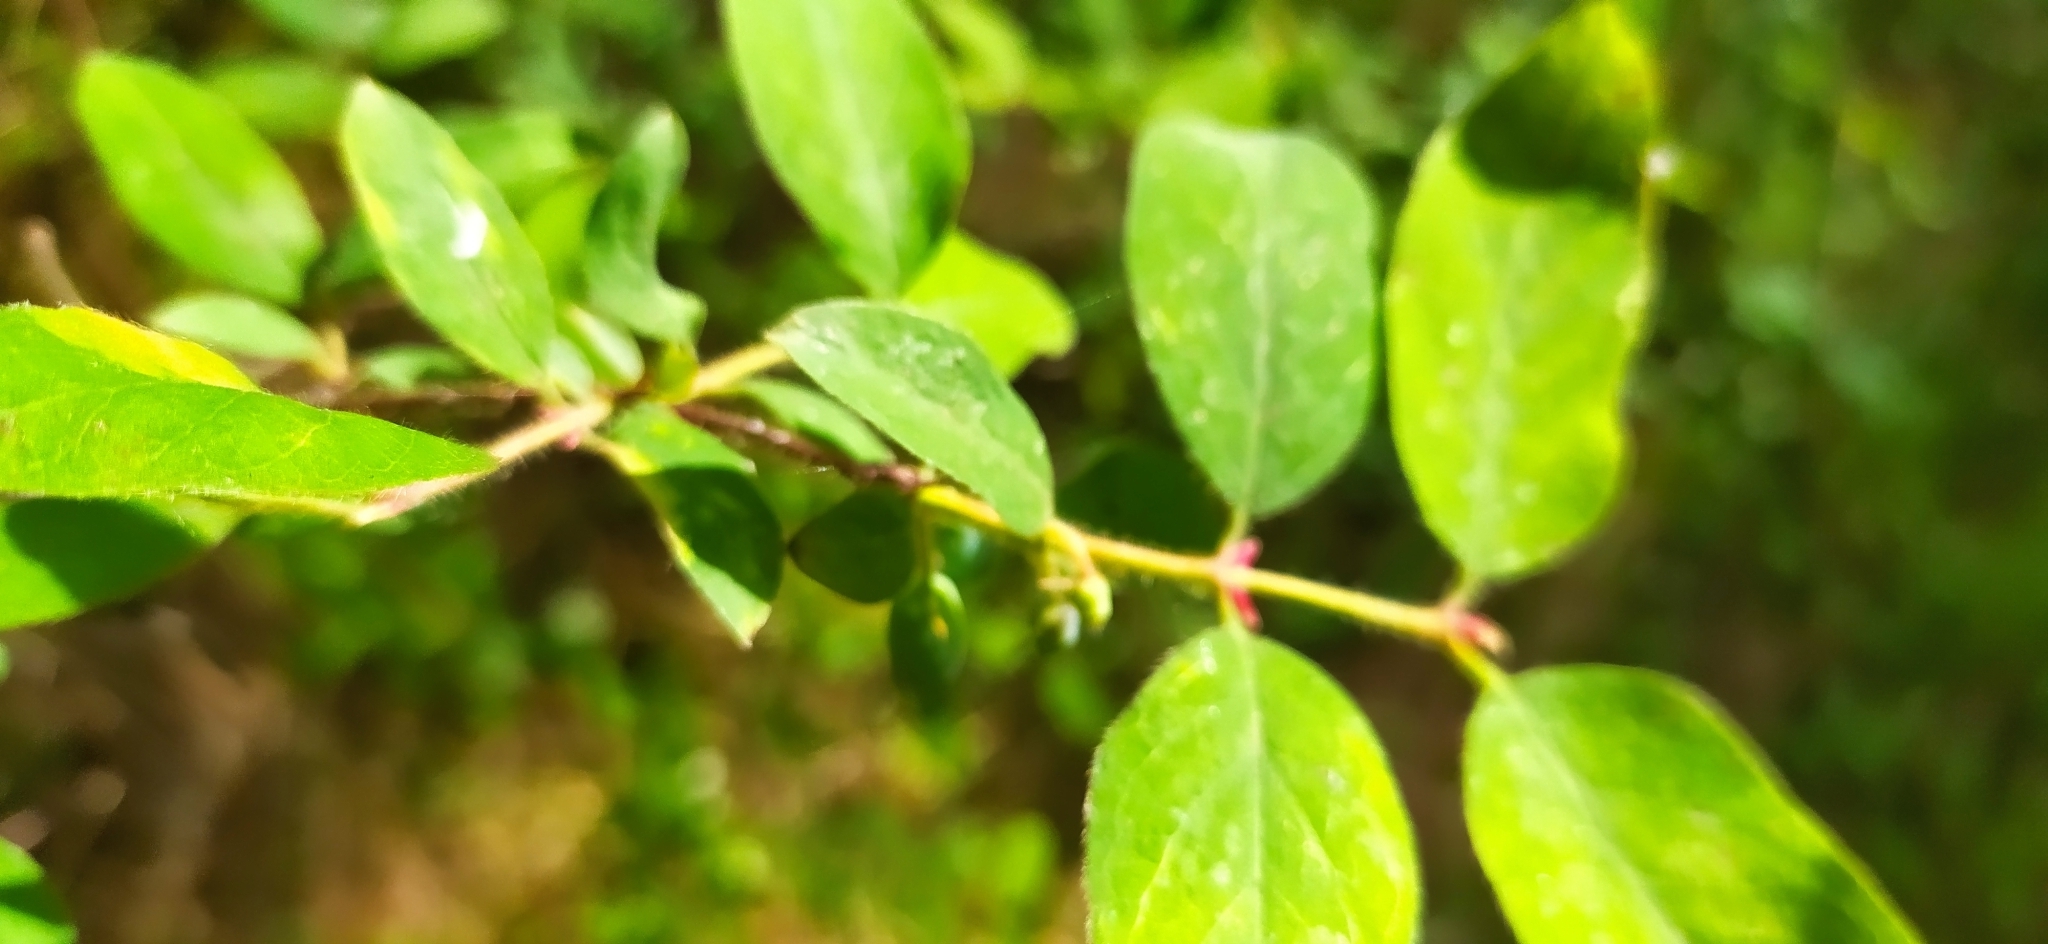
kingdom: Plantae
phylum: Tracheophyta
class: Magnoliopsida
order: Dipsacales
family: Caprifoliaceae
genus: Lonicera
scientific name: Lonicera caerulea
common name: Blue honeysuckle
